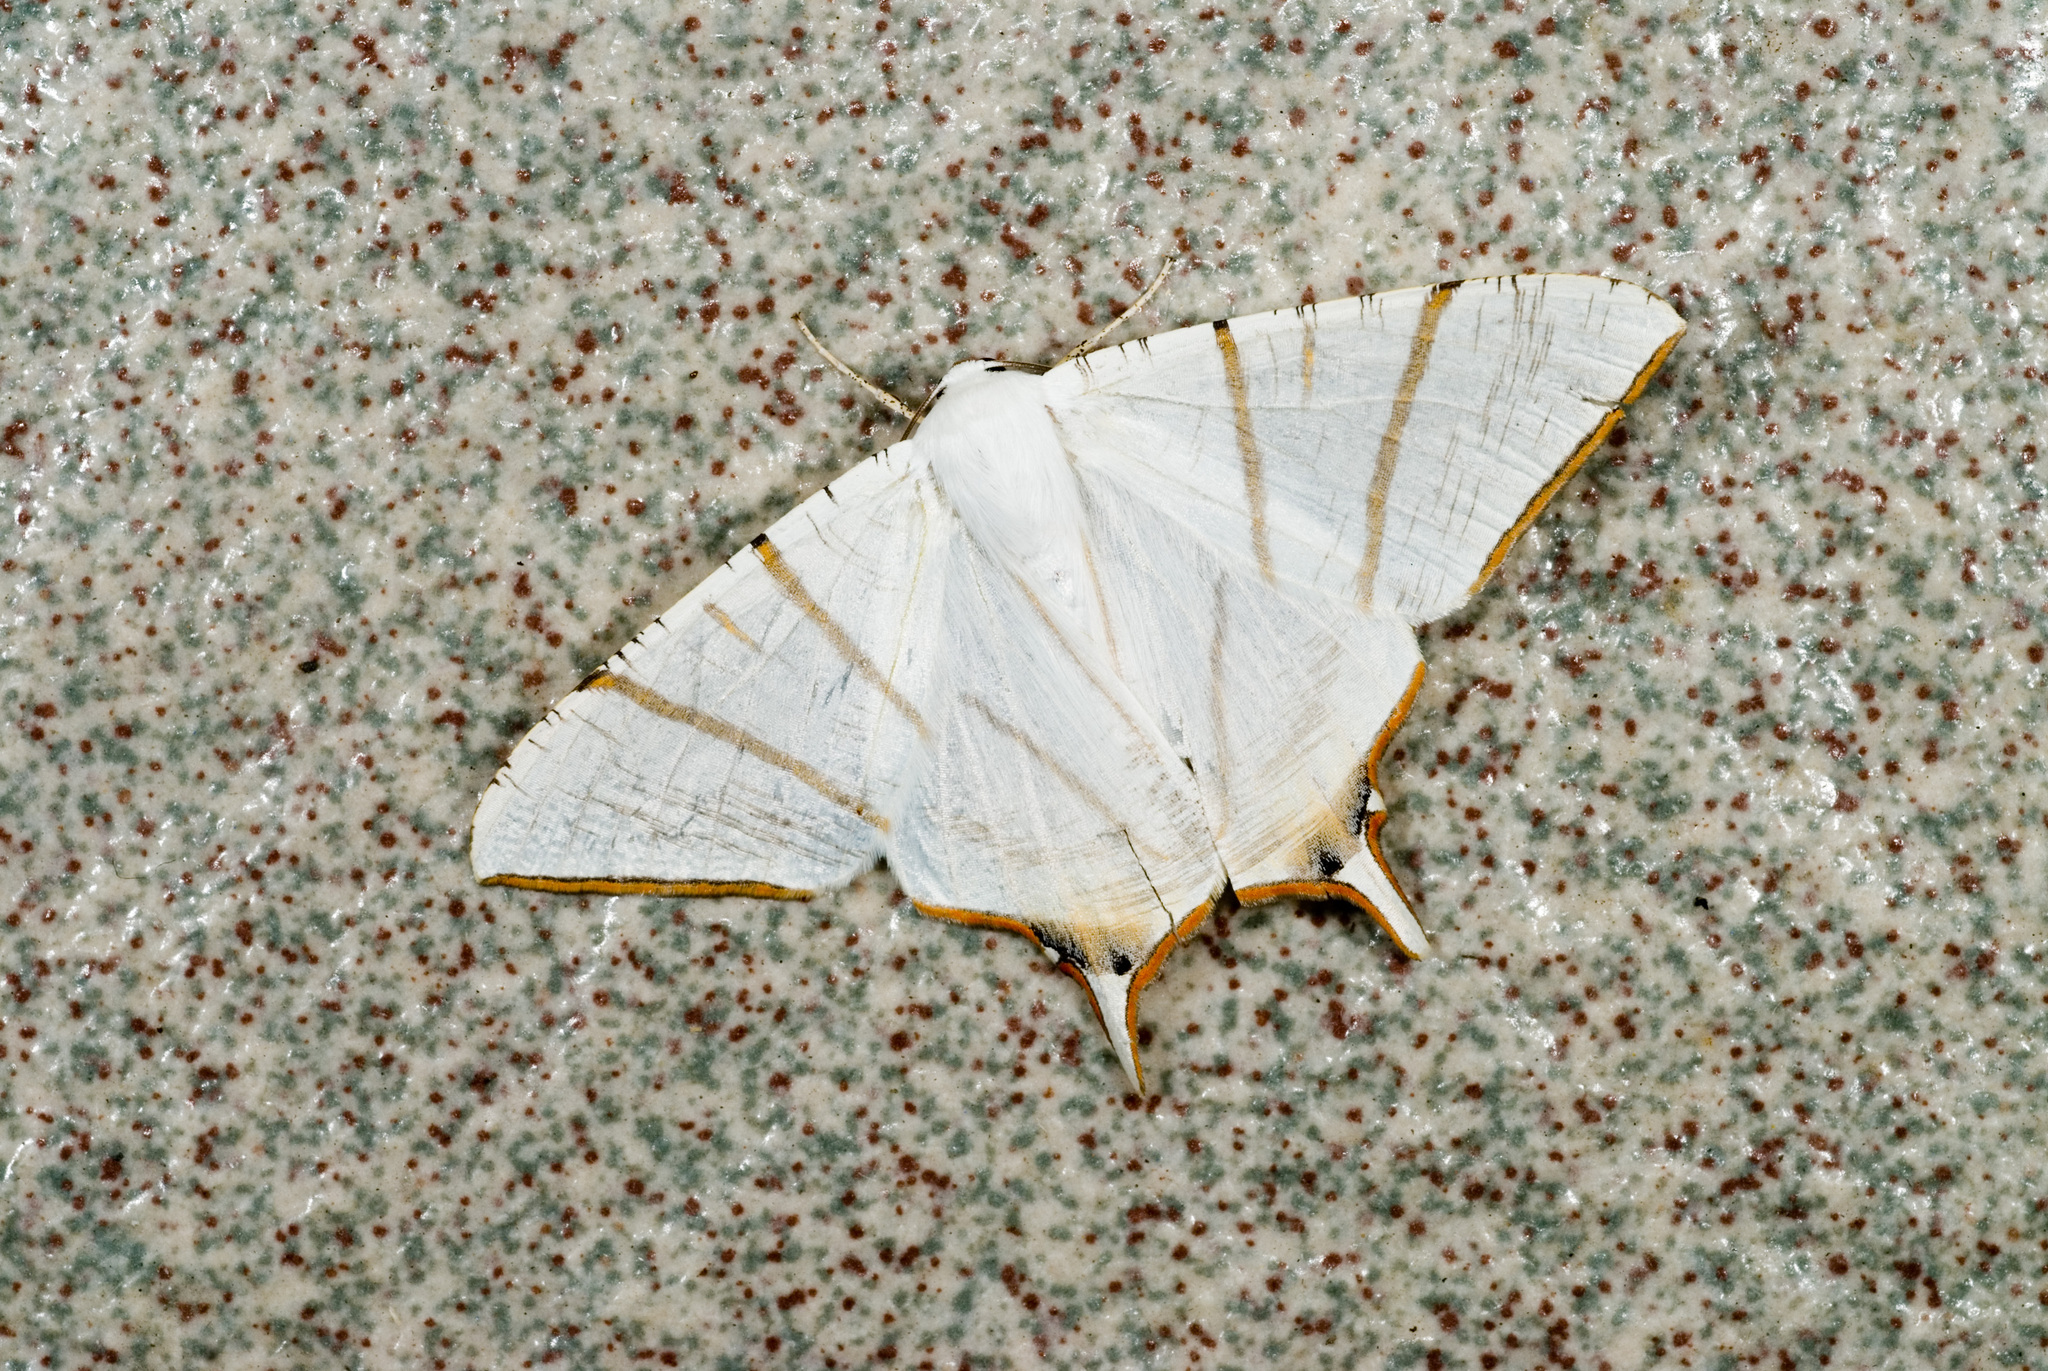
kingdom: Animalia
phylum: Arthropoda
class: Insecta
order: Lepidoptera
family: Geometridae
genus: Ourapteryx
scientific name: Ourapteryx clara
